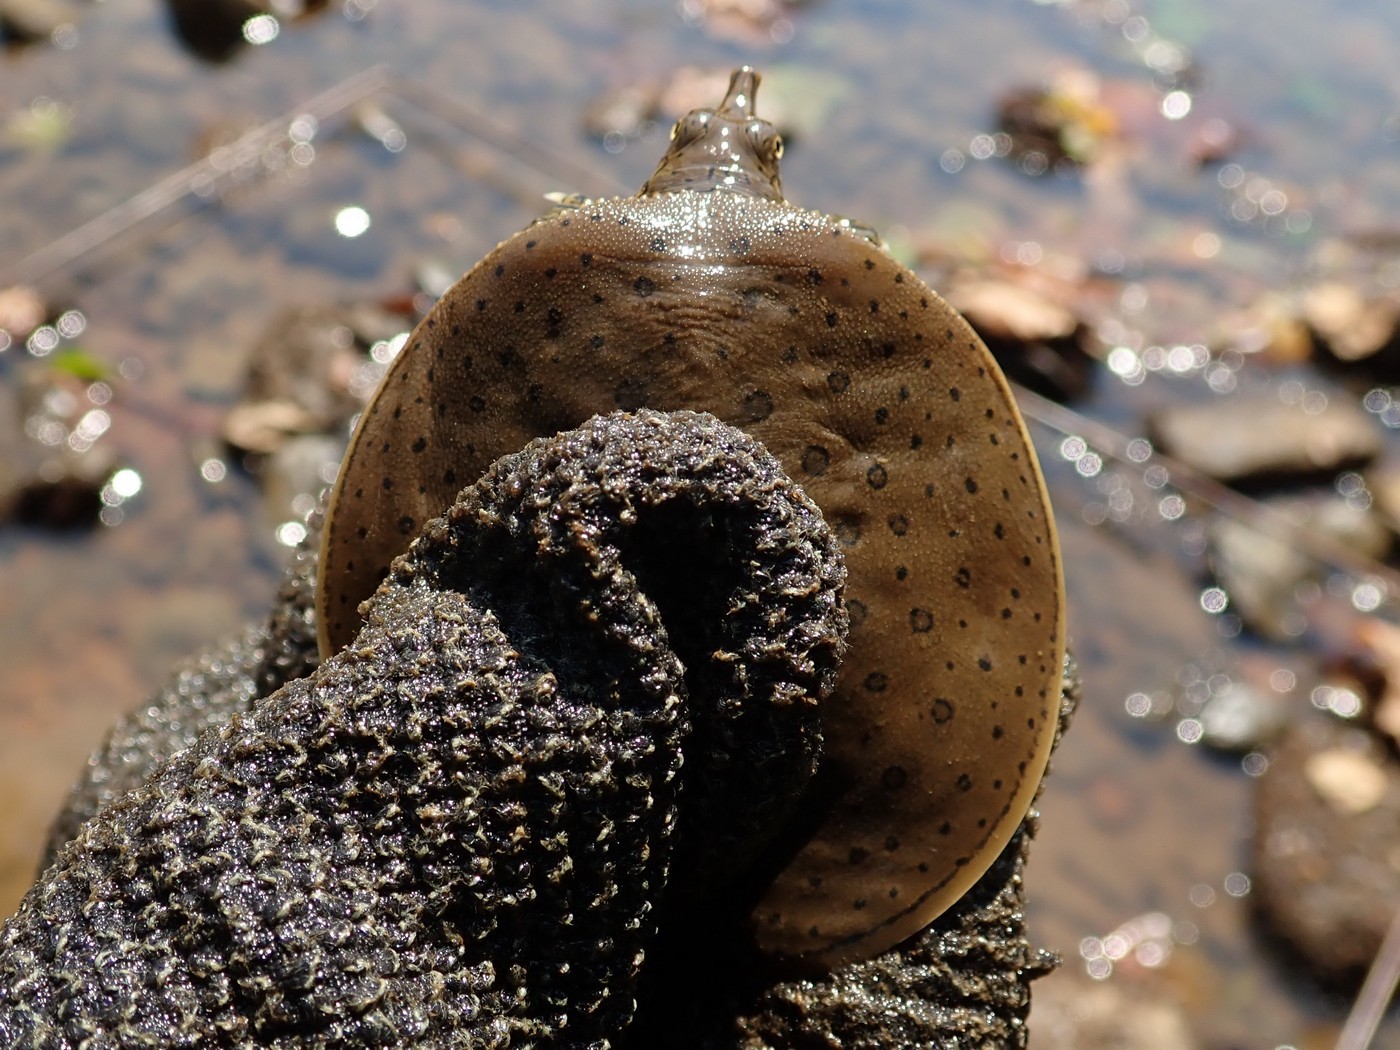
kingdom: Animalia
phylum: Chordata
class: Testudines
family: Trionychidae
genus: Apalone
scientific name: Apalone spinifera
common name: Spiny softshell turtle
